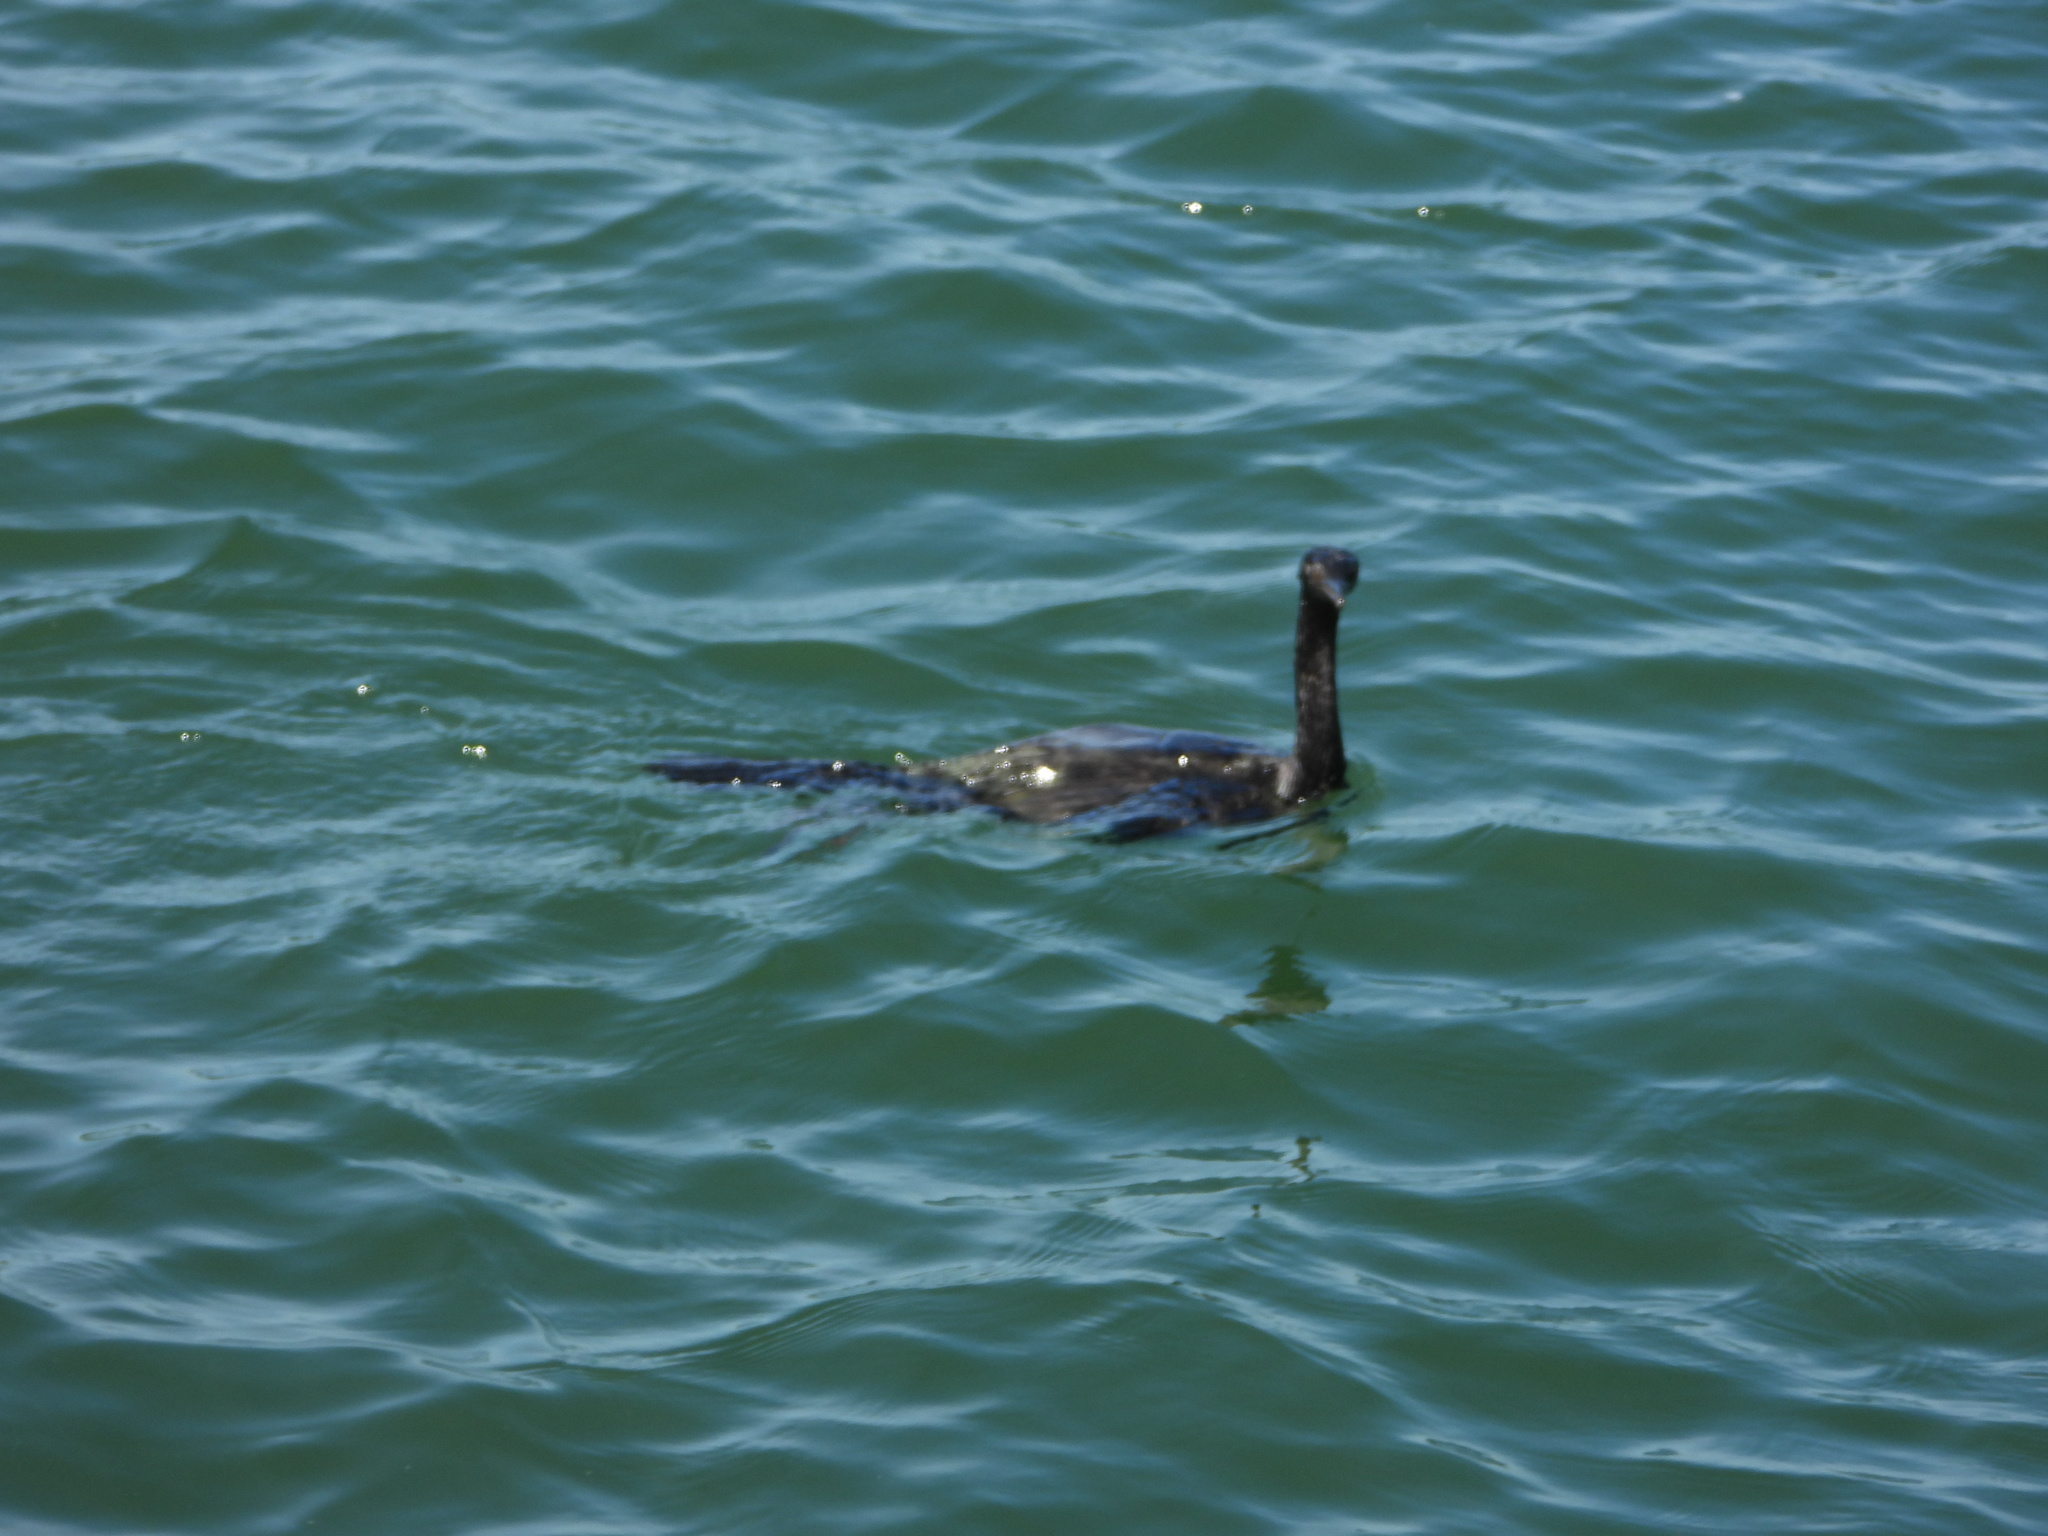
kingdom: Animalia
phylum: Chordata
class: Aves
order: Suliformes
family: Phalacrocoracidae
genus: Phalacrocorax
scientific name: Phalacrocorax pelagicus
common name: Pelagic cormorant
